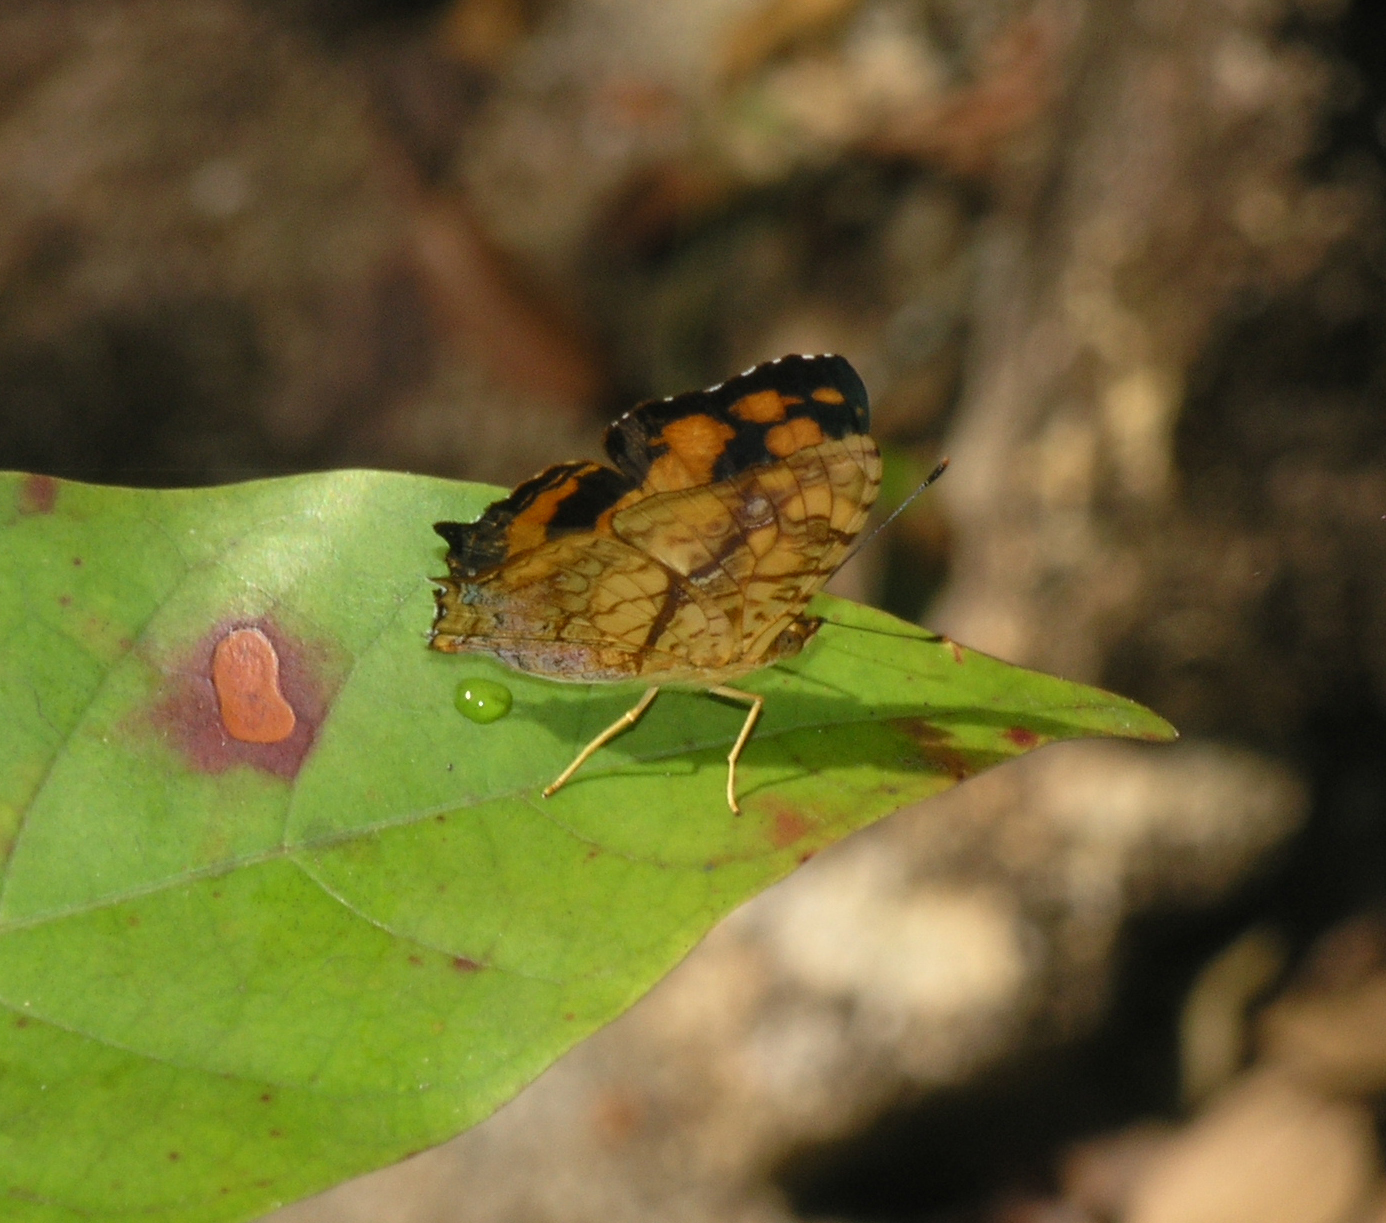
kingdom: Animalia
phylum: Arthropoda
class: Insecta
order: Lepidoptera
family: Nymphalidae
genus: Symbrenthia
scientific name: Symbrenthia hypselis
